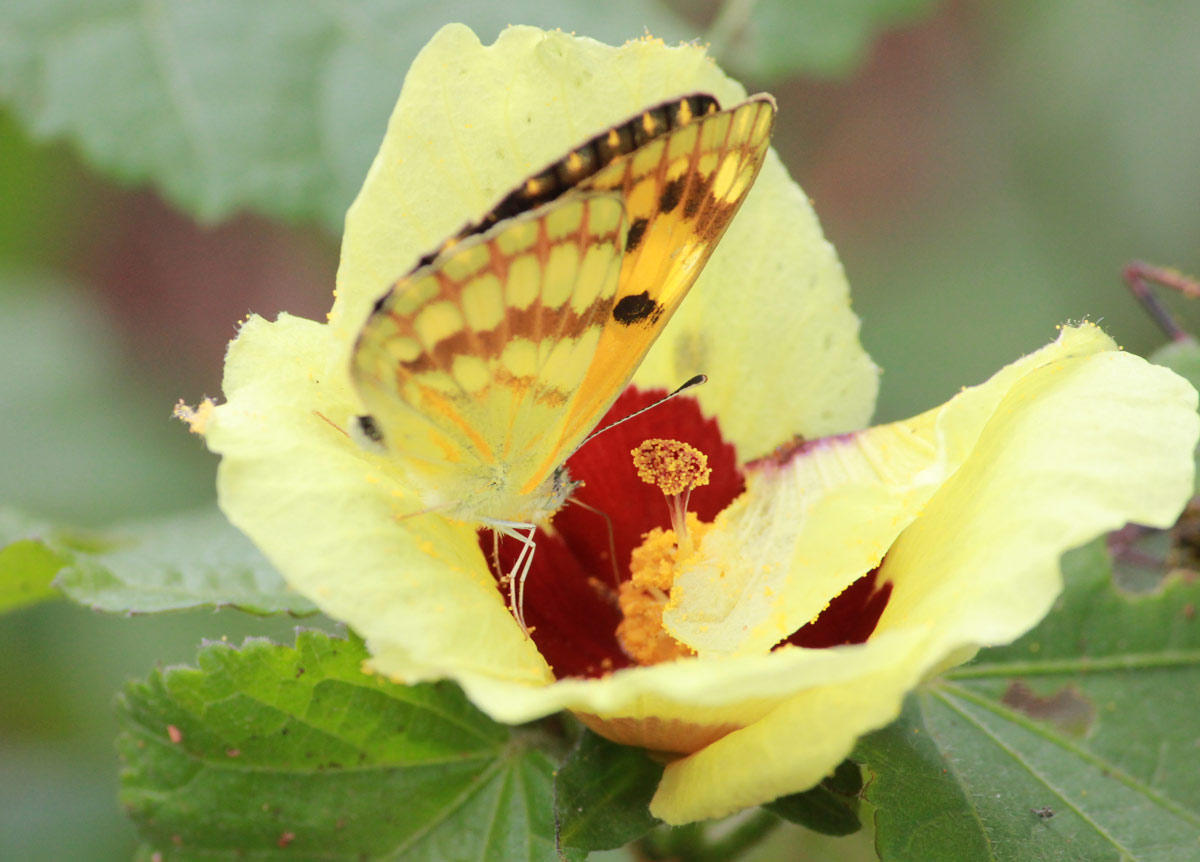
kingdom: Animalia
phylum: Arthropoda
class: Insecta
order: Lepidoptera
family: Pieridae
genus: Colotis
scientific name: Colotis vesta
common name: Veined golden arab
